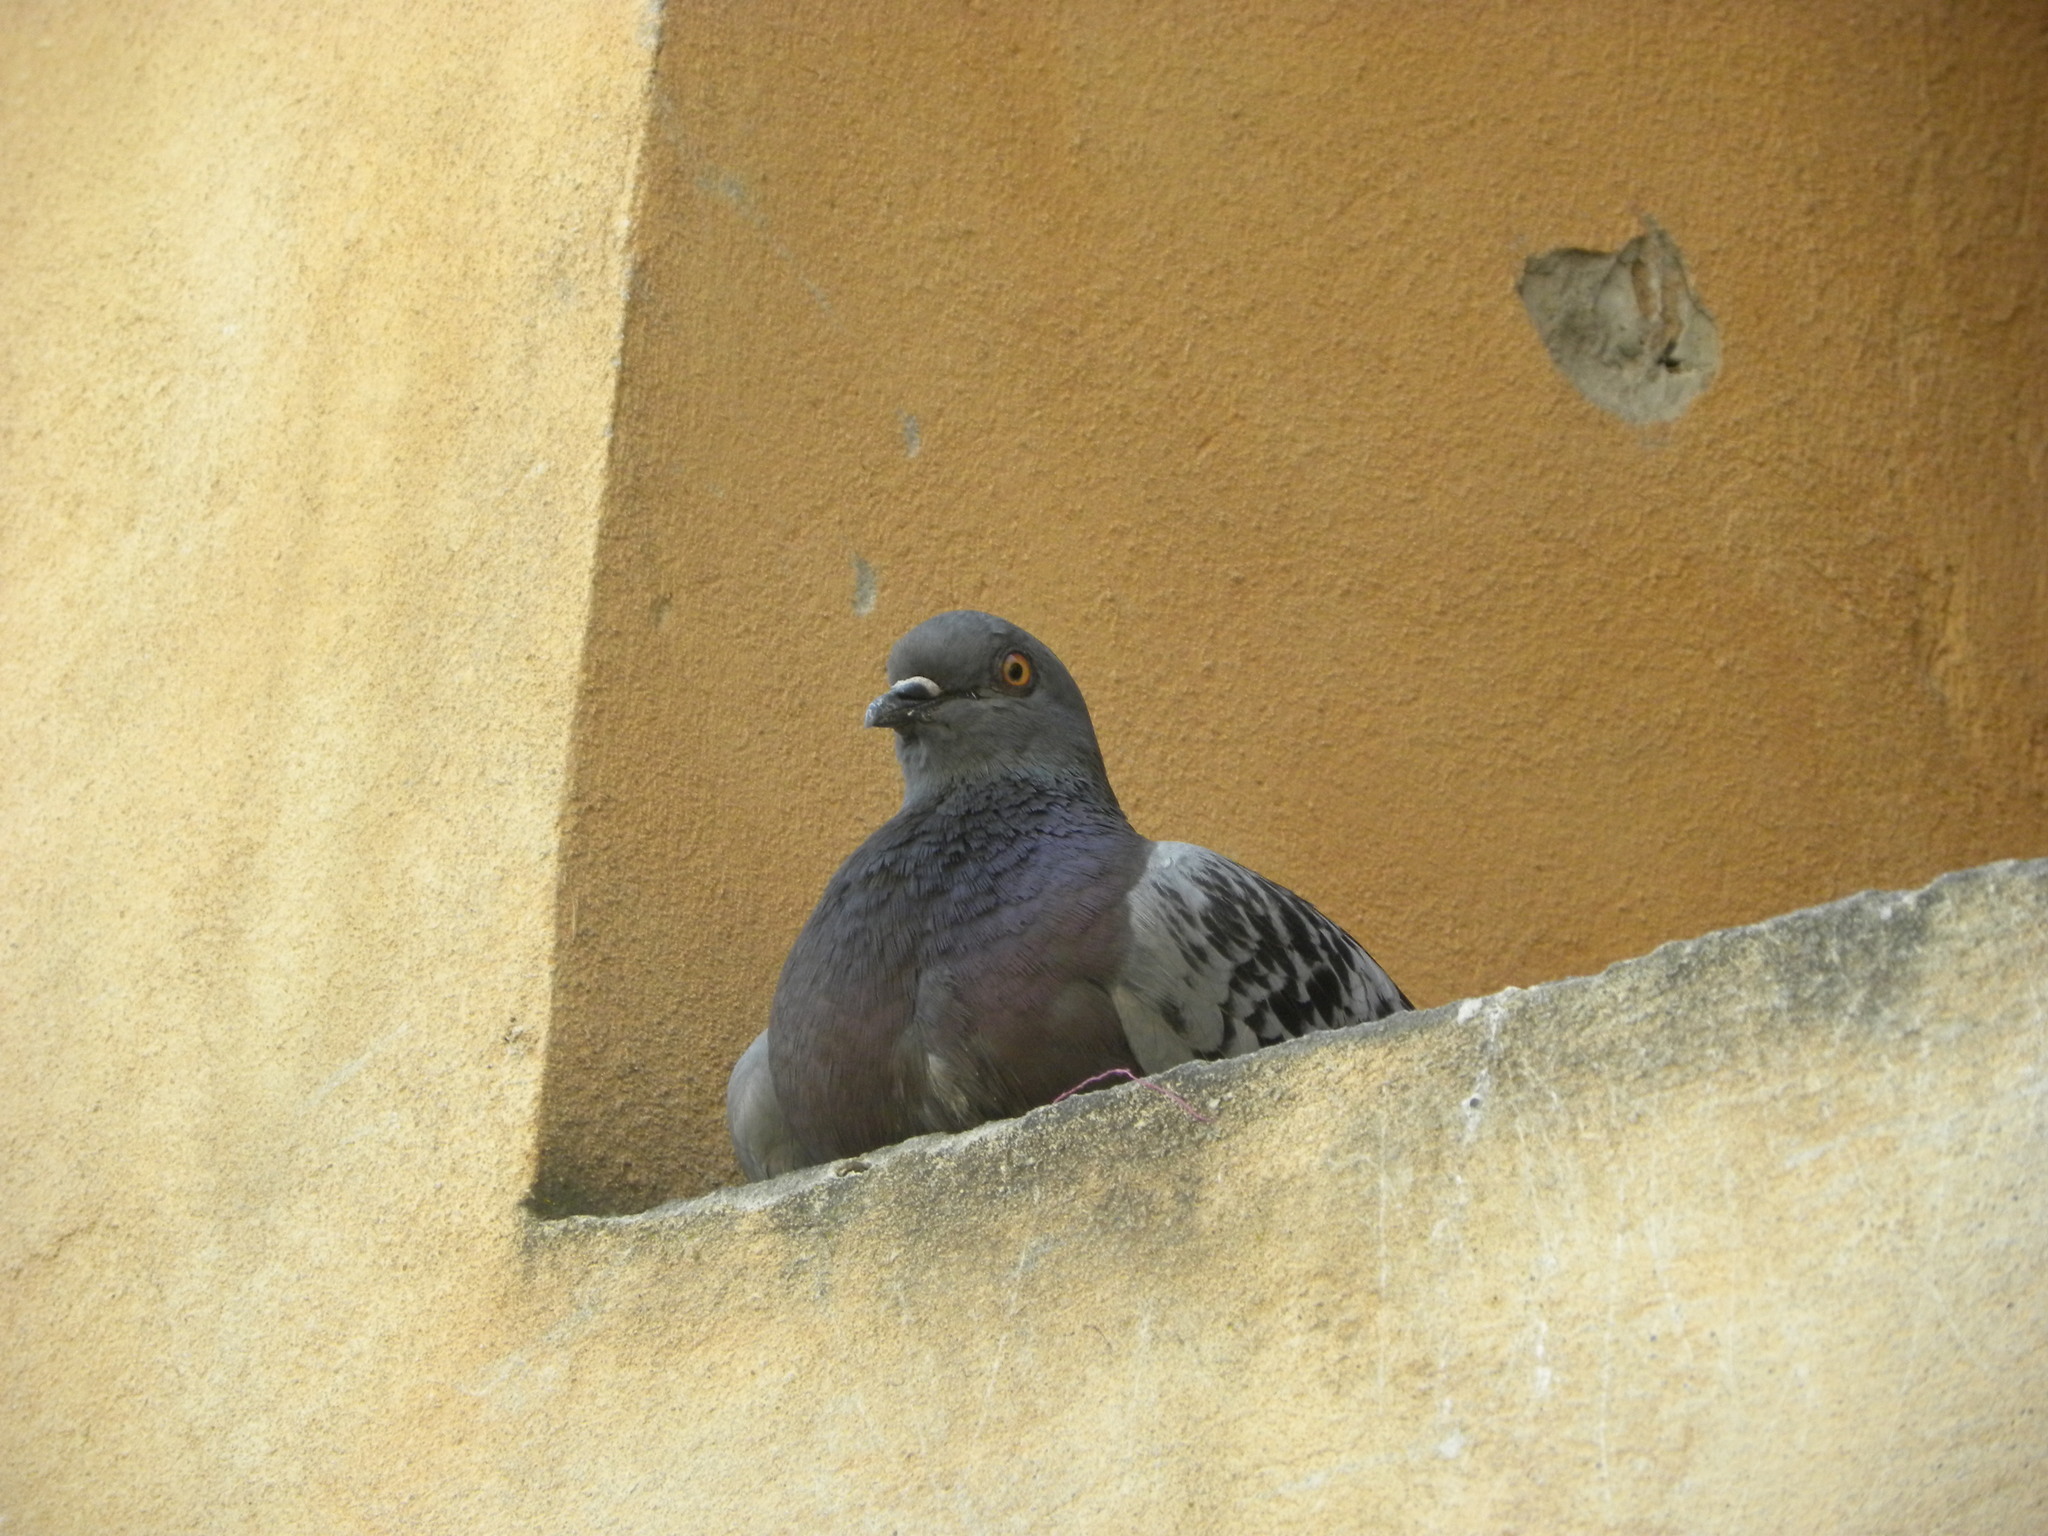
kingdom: Animalia
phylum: Chordata
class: Aves
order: Columbiformes
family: Columbidae
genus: Columba
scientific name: Columba livia
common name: Rock pigeon
